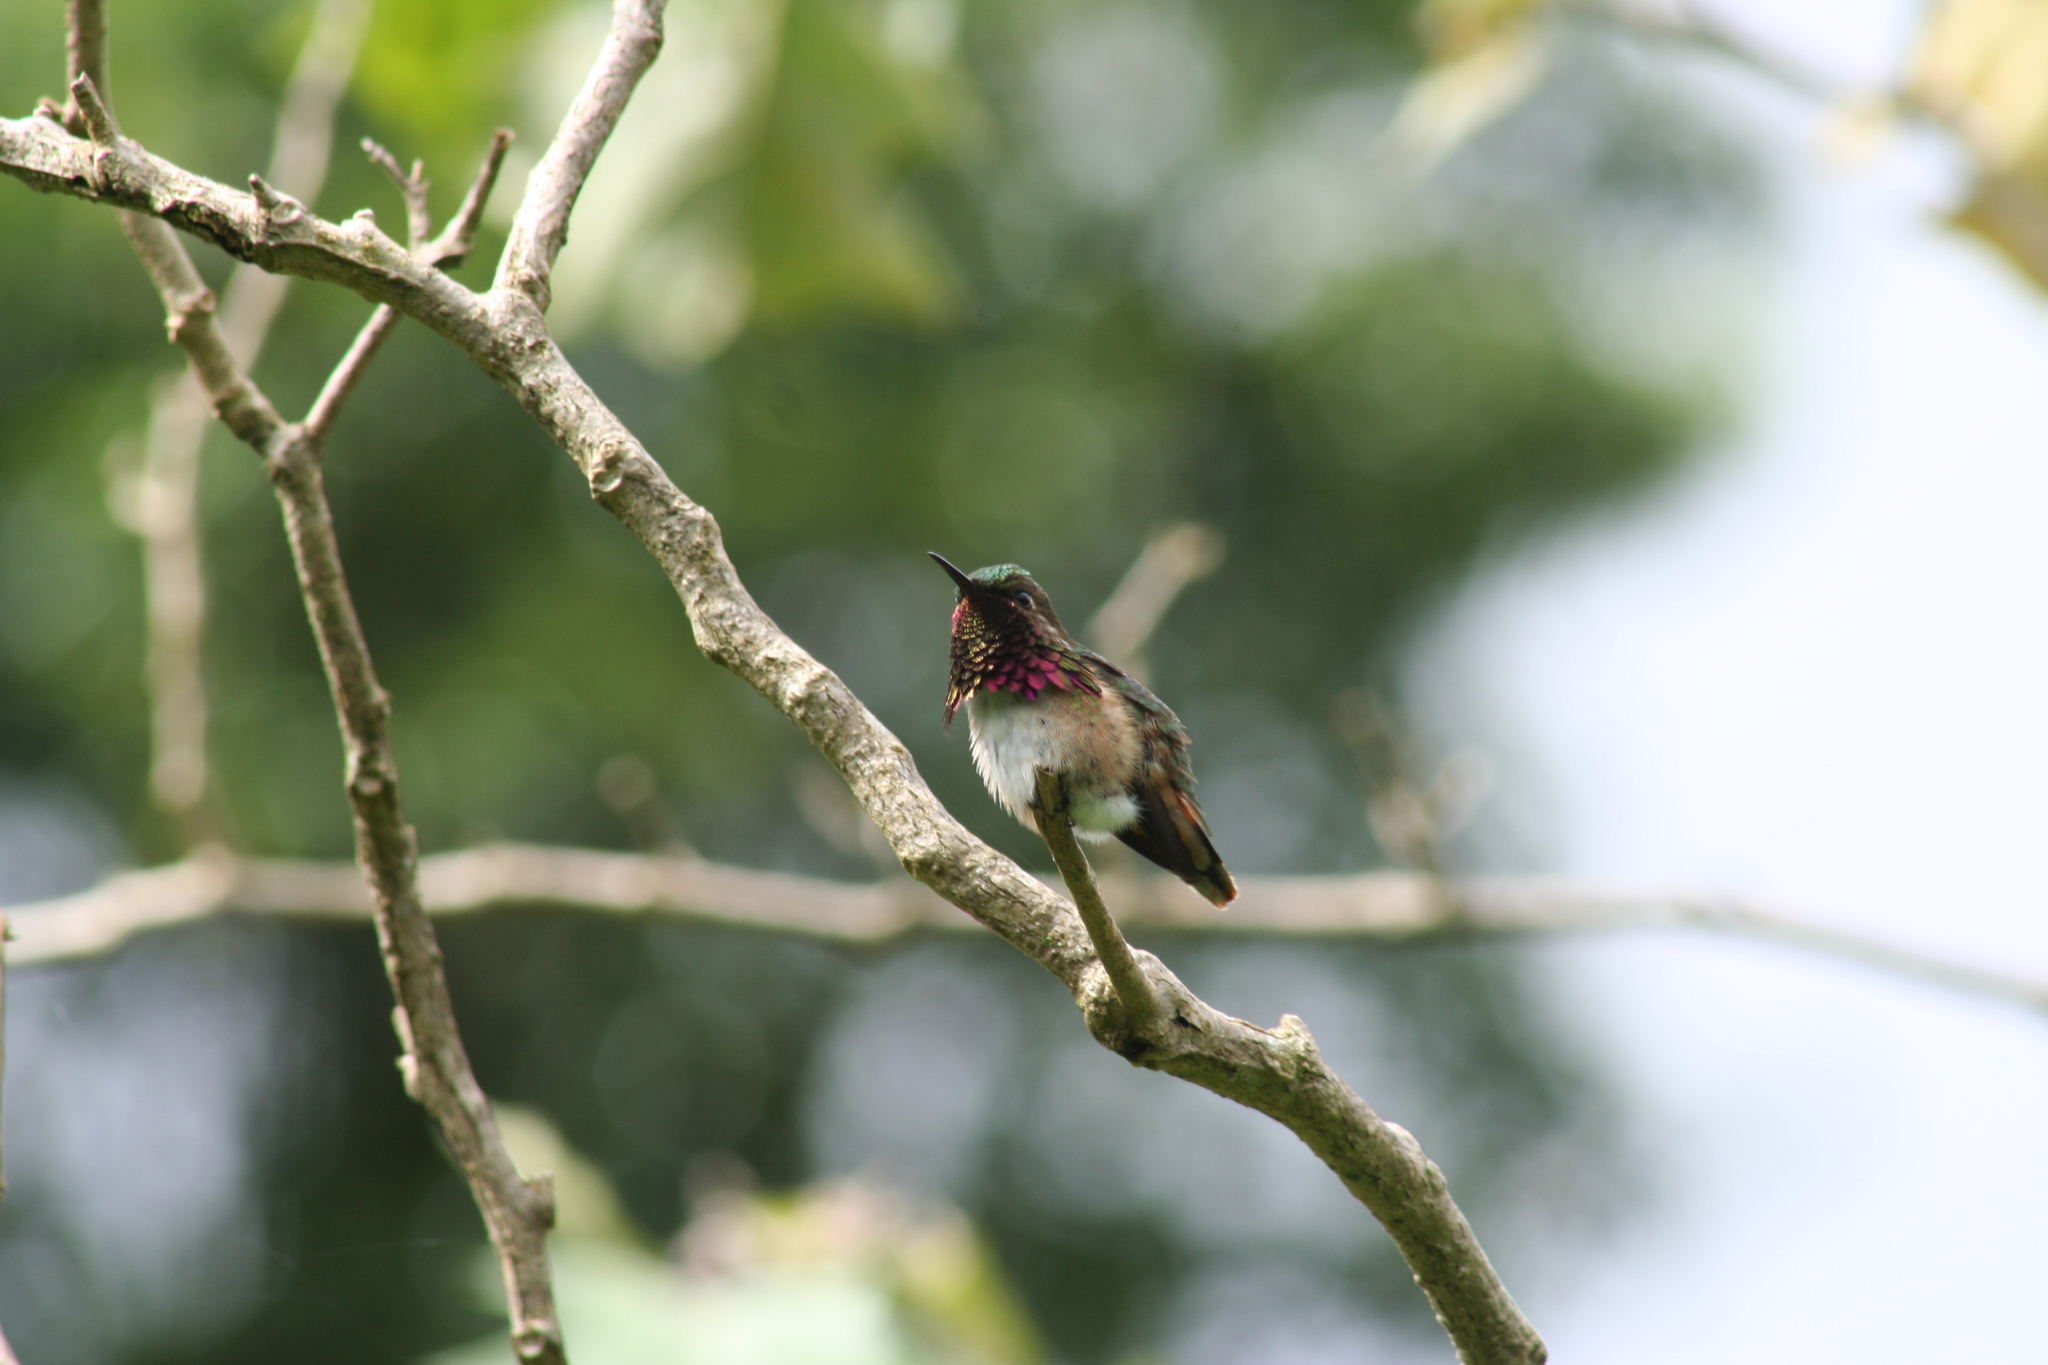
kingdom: Animalia
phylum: Chordata
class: Aves
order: Apodiformes
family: Trochilidae
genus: Selasphorus
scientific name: Selasphorus ellioti
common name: Wine-throated hummingbird
